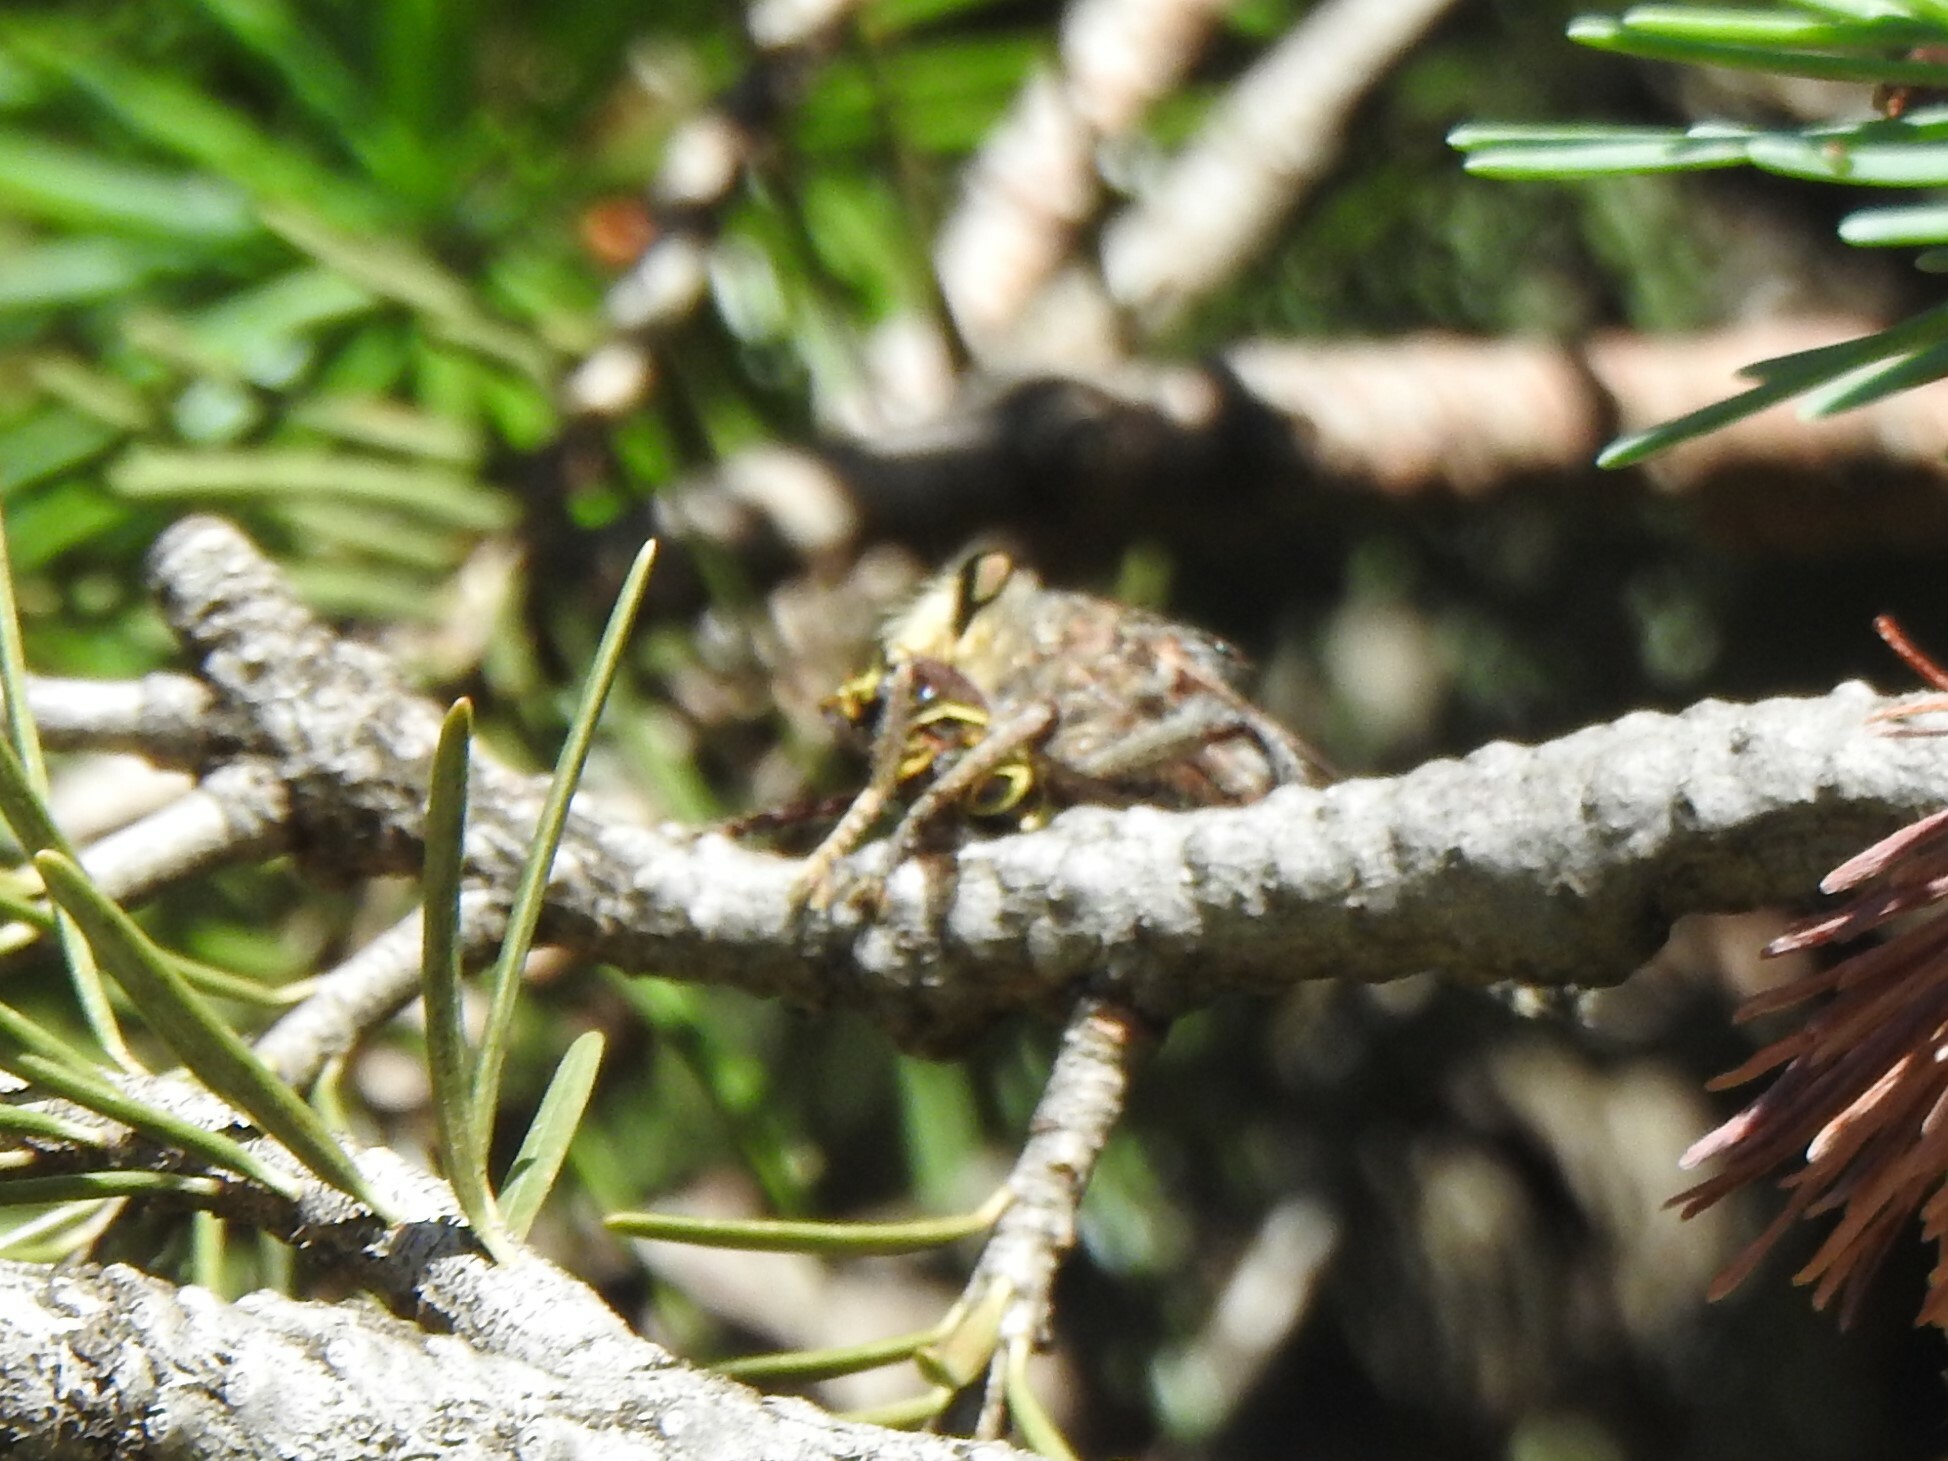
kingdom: Animalia
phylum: Arthropoda
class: Insecta
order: Diptera
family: Asilidae
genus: Promachus
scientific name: Promachus
